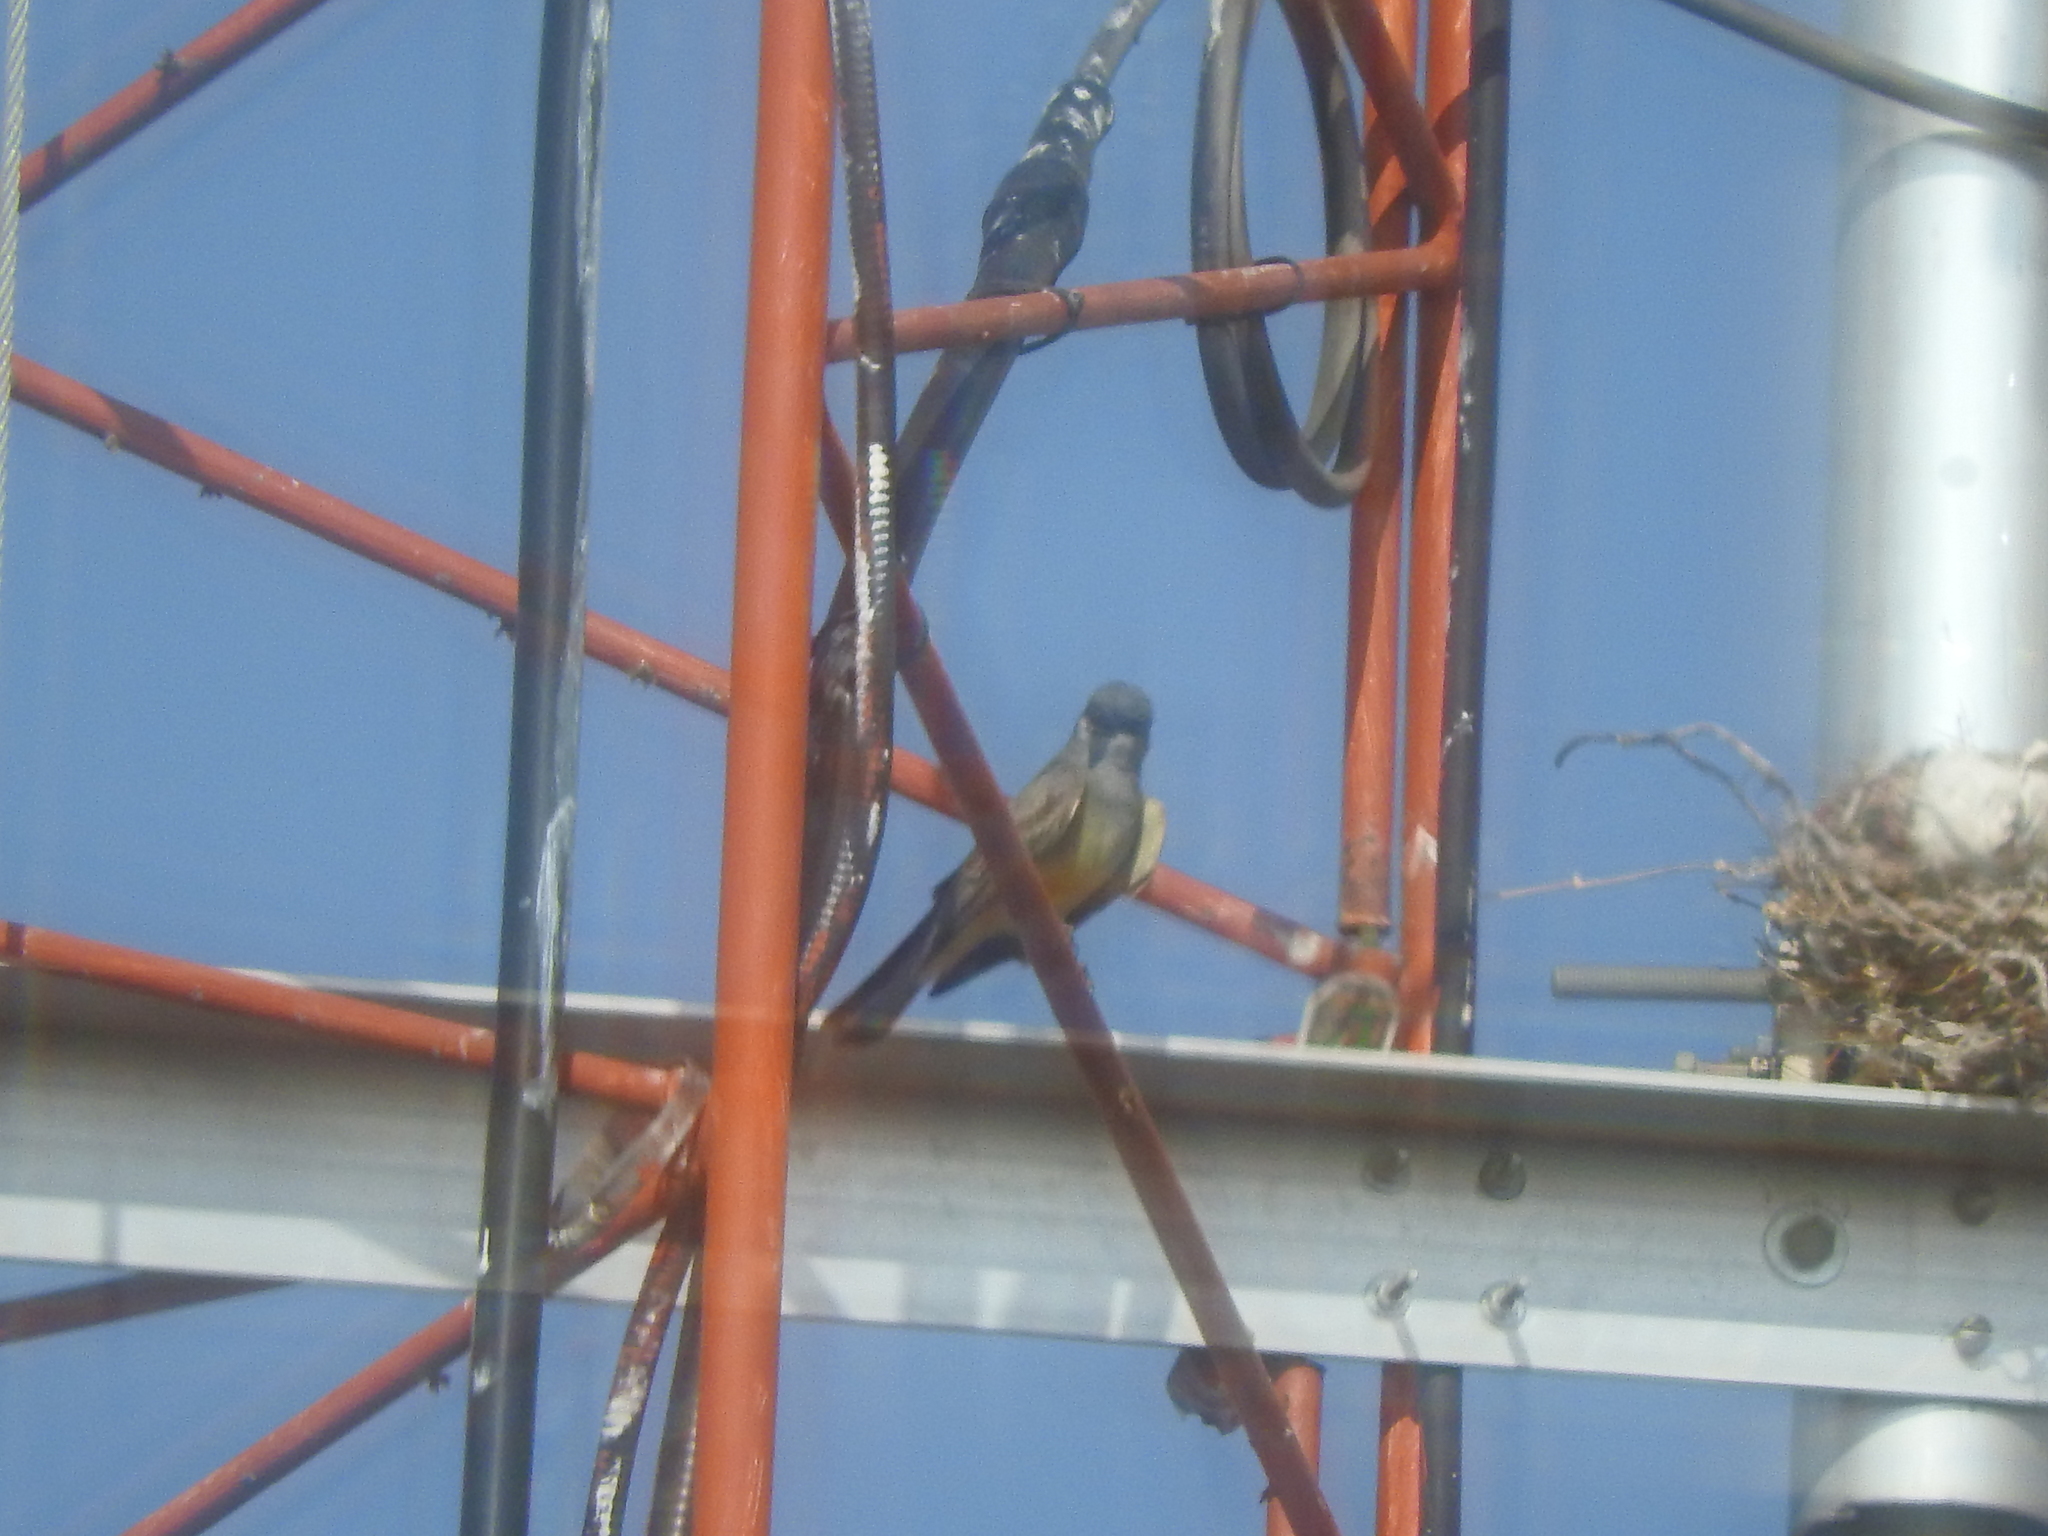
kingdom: Animalia
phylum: Chordata
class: Aves
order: Passeriformes
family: Tyrannidae
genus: Tyrannus
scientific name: Tyrannus vociferans
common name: Cassin's kingbird
